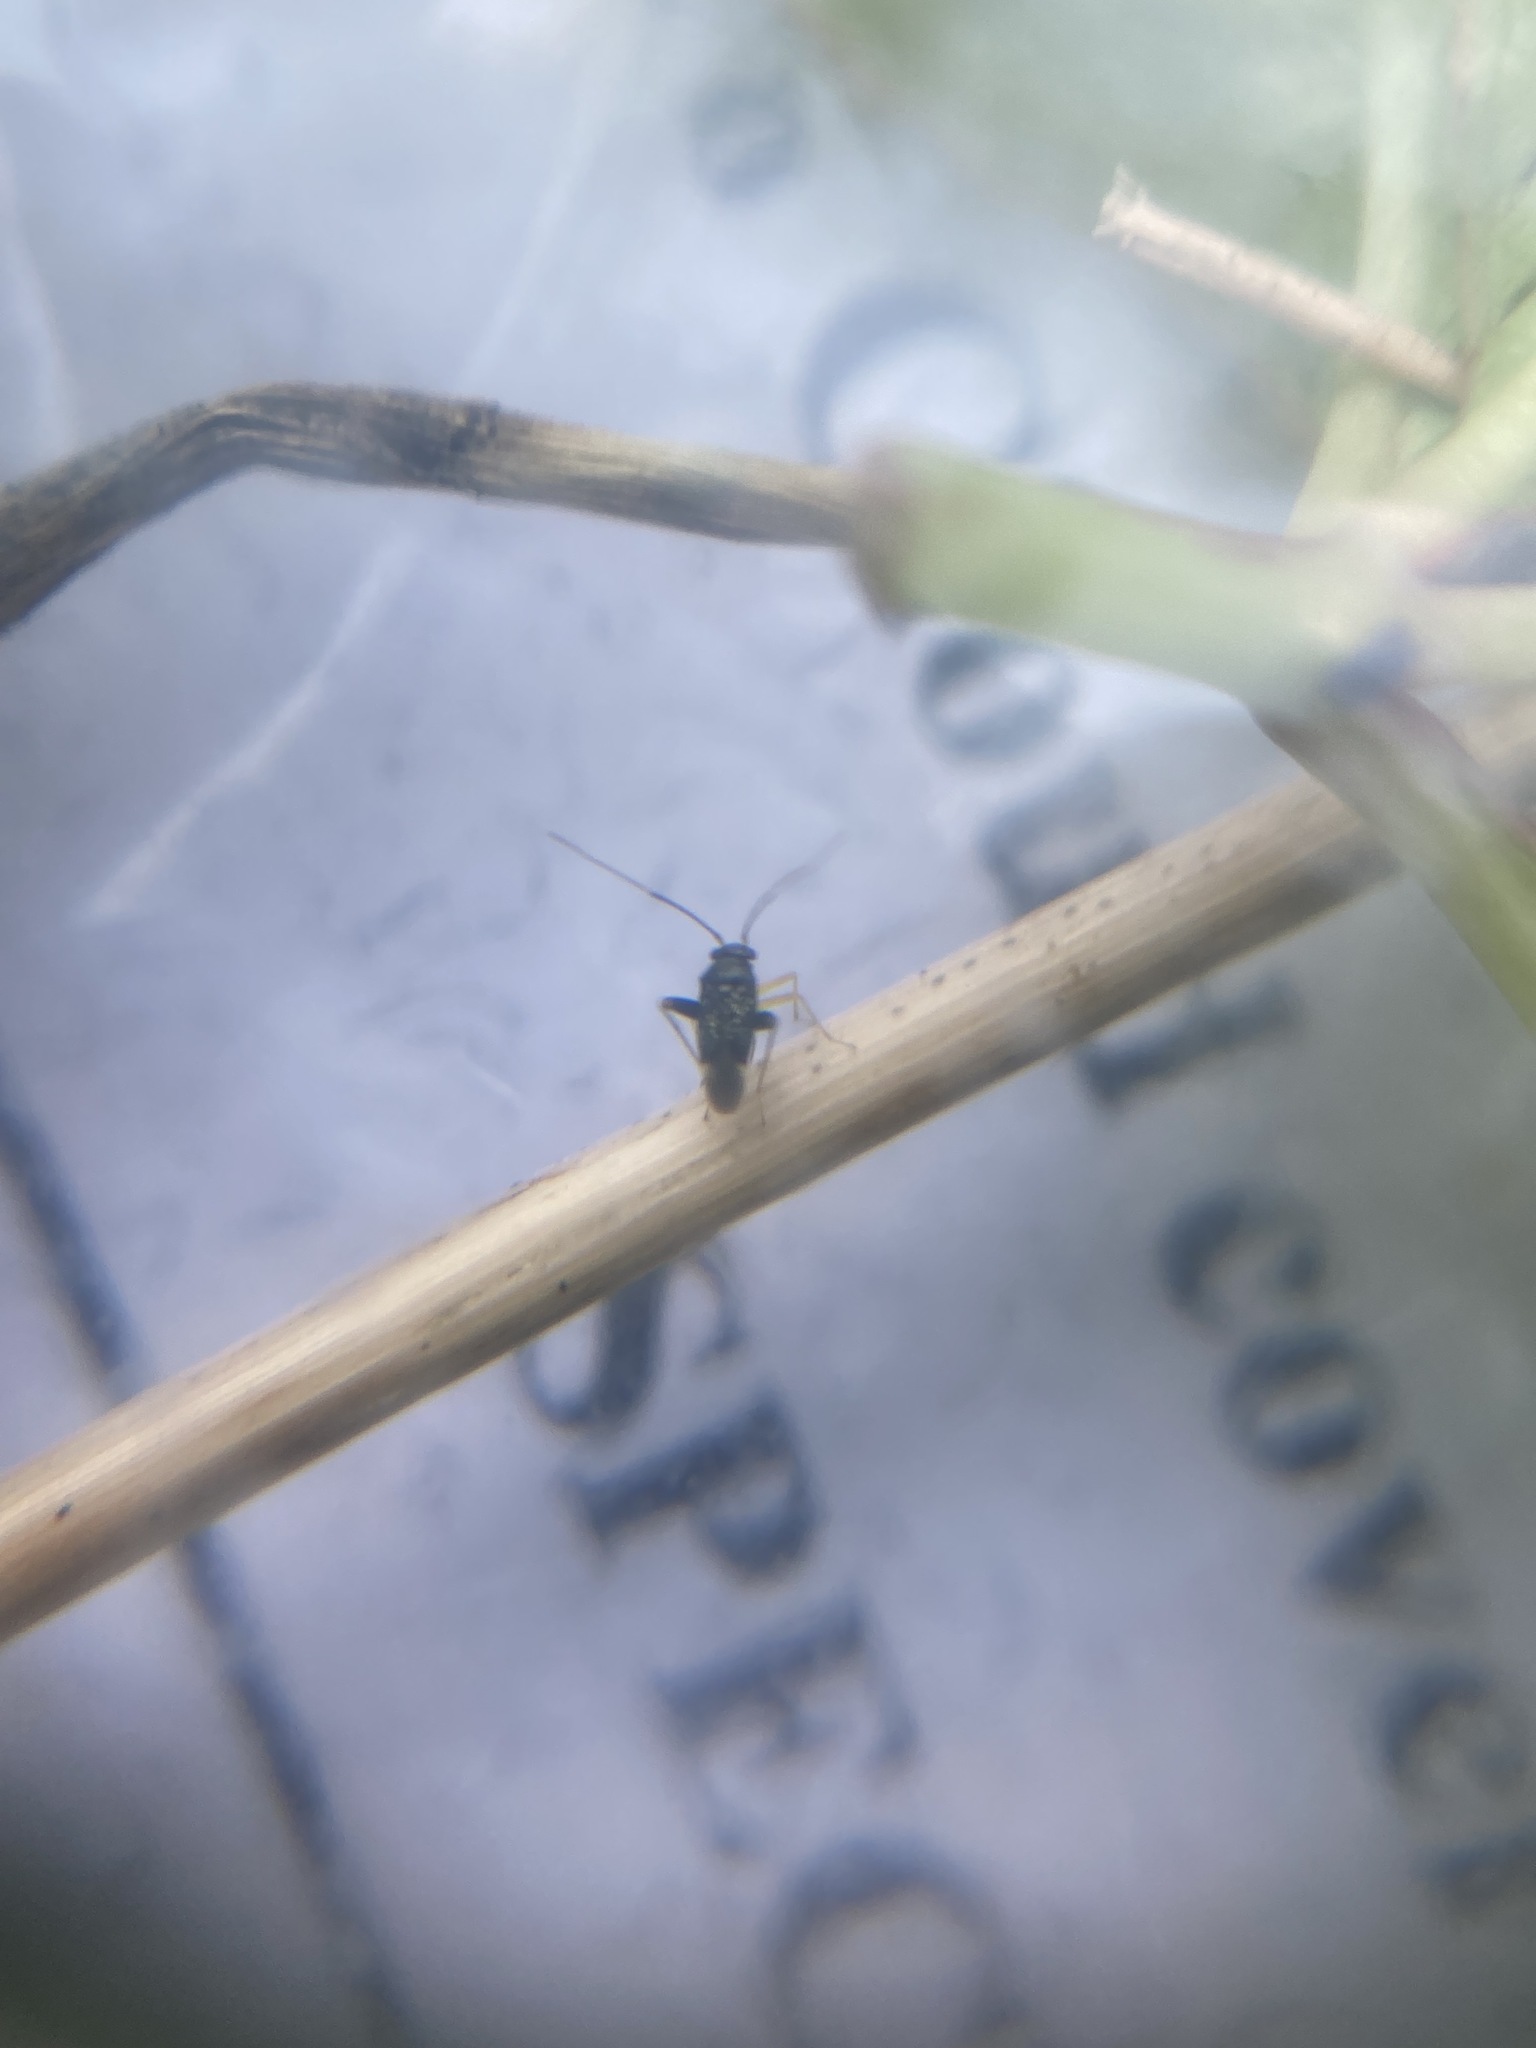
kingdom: Animalia
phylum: Arthropoda
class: Insecta
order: Hemiptera
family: Miridae
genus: Microtechnites
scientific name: Microtechnites bractatus
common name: Garden fleahopper
